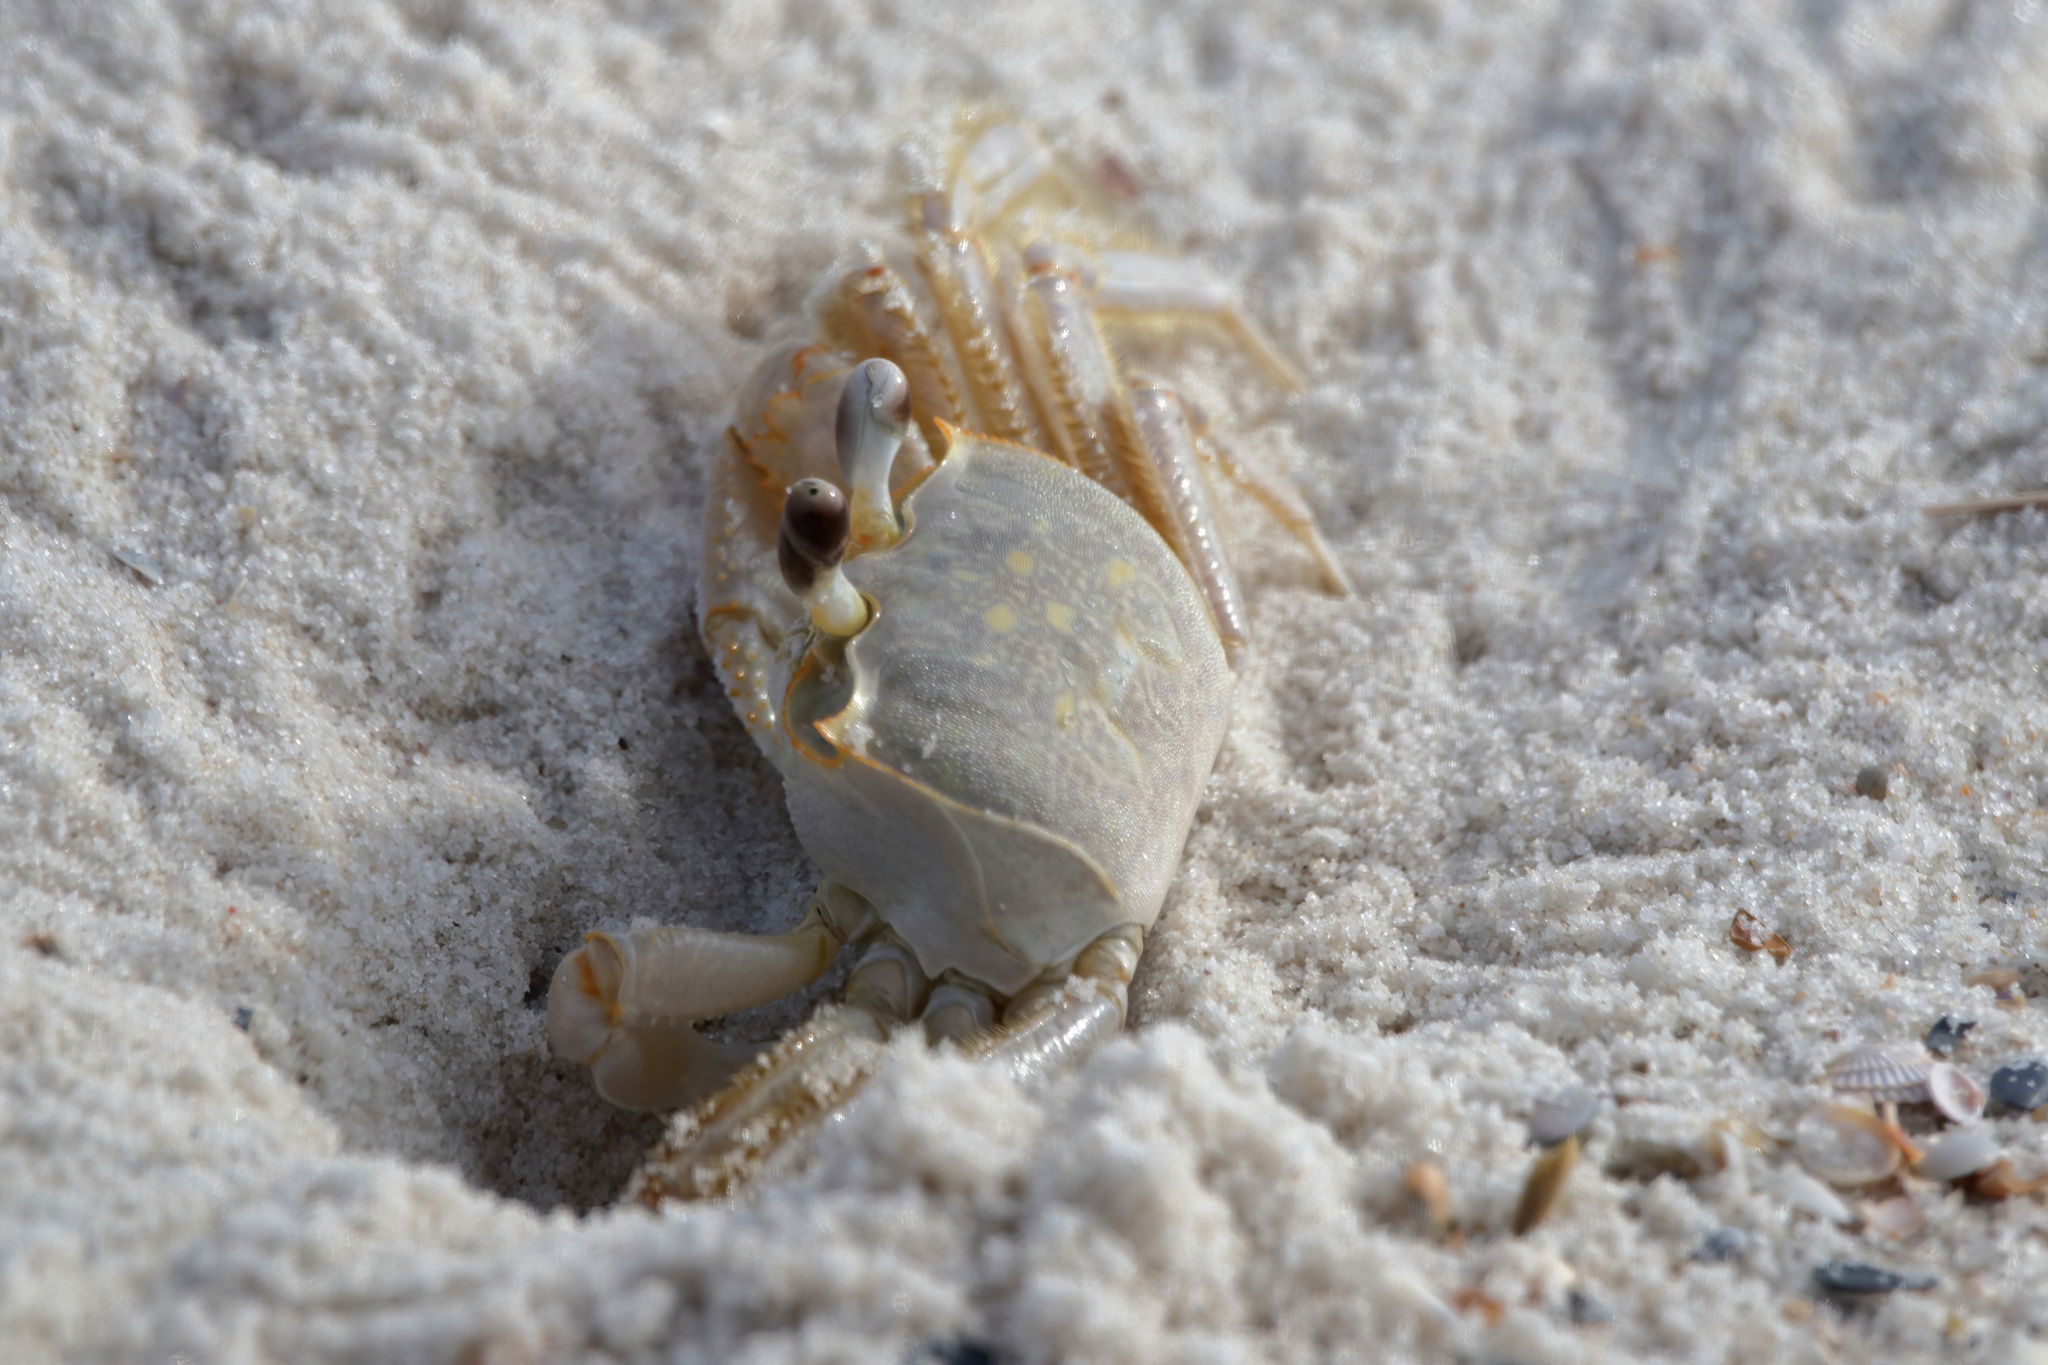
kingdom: Animalia
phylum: Arthropoda
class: Malacostraca
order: Decapoda
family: Ocypodidae
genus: Ocypode
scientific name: Ocypode quadrata
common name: Ghost crab
